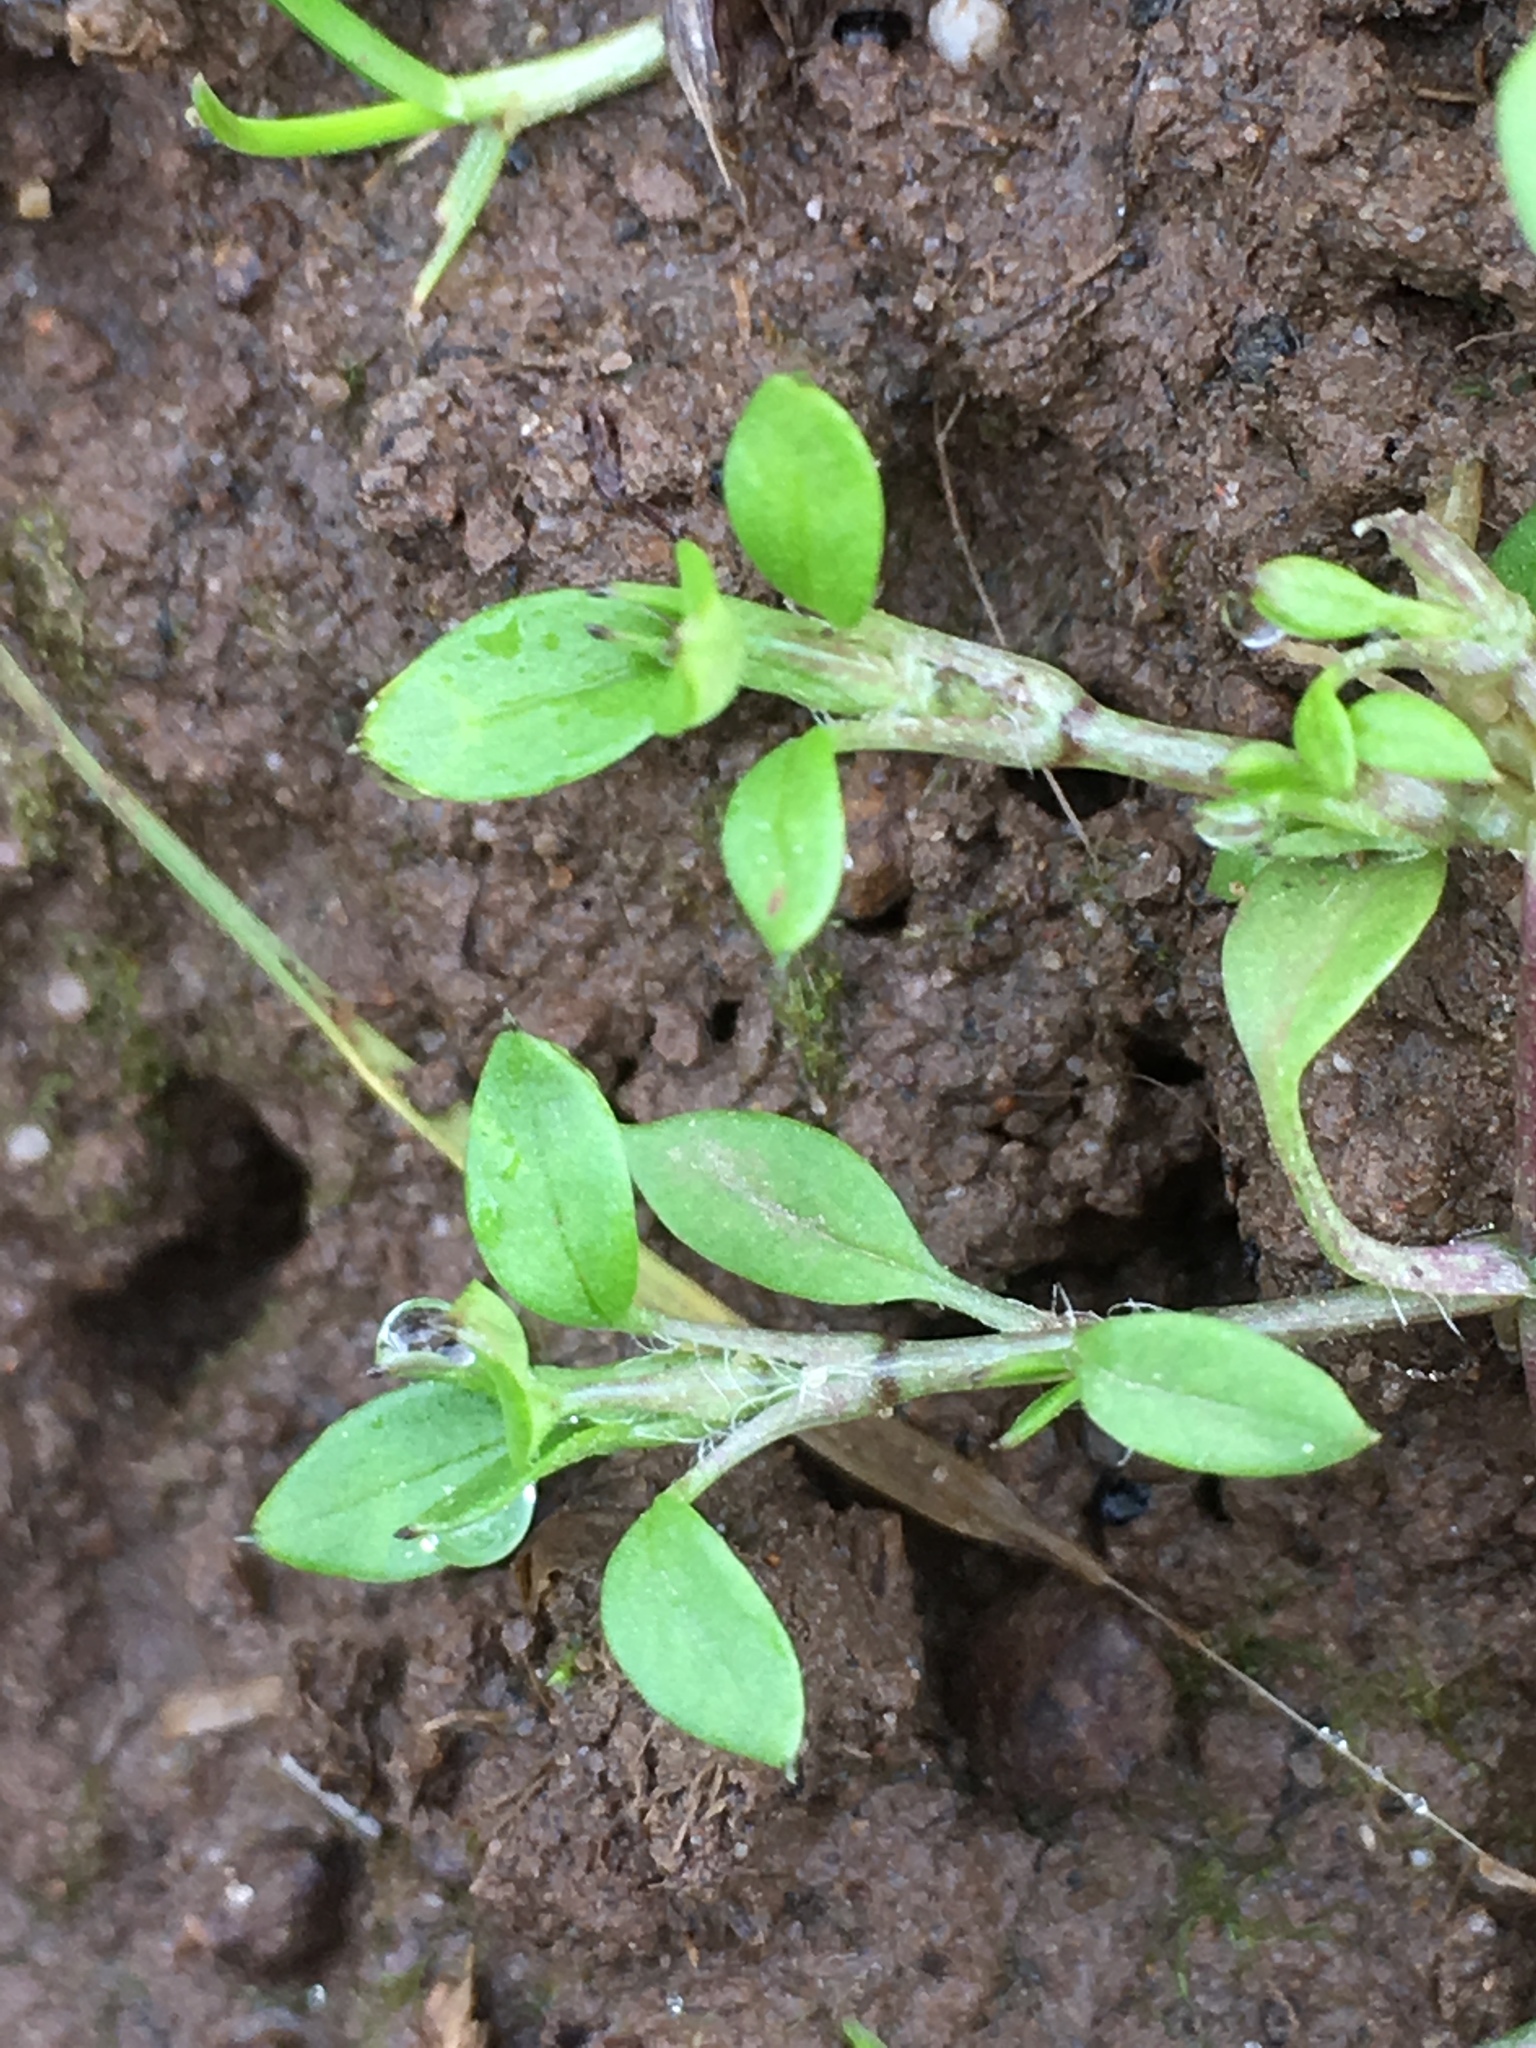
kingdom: Plantae
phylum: Tracheophyta
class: Magnoliopsida
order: Caryophyllales
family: Caryophyllaceae
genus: Stellaria
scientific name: Stellaria media
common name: Common chickweed
